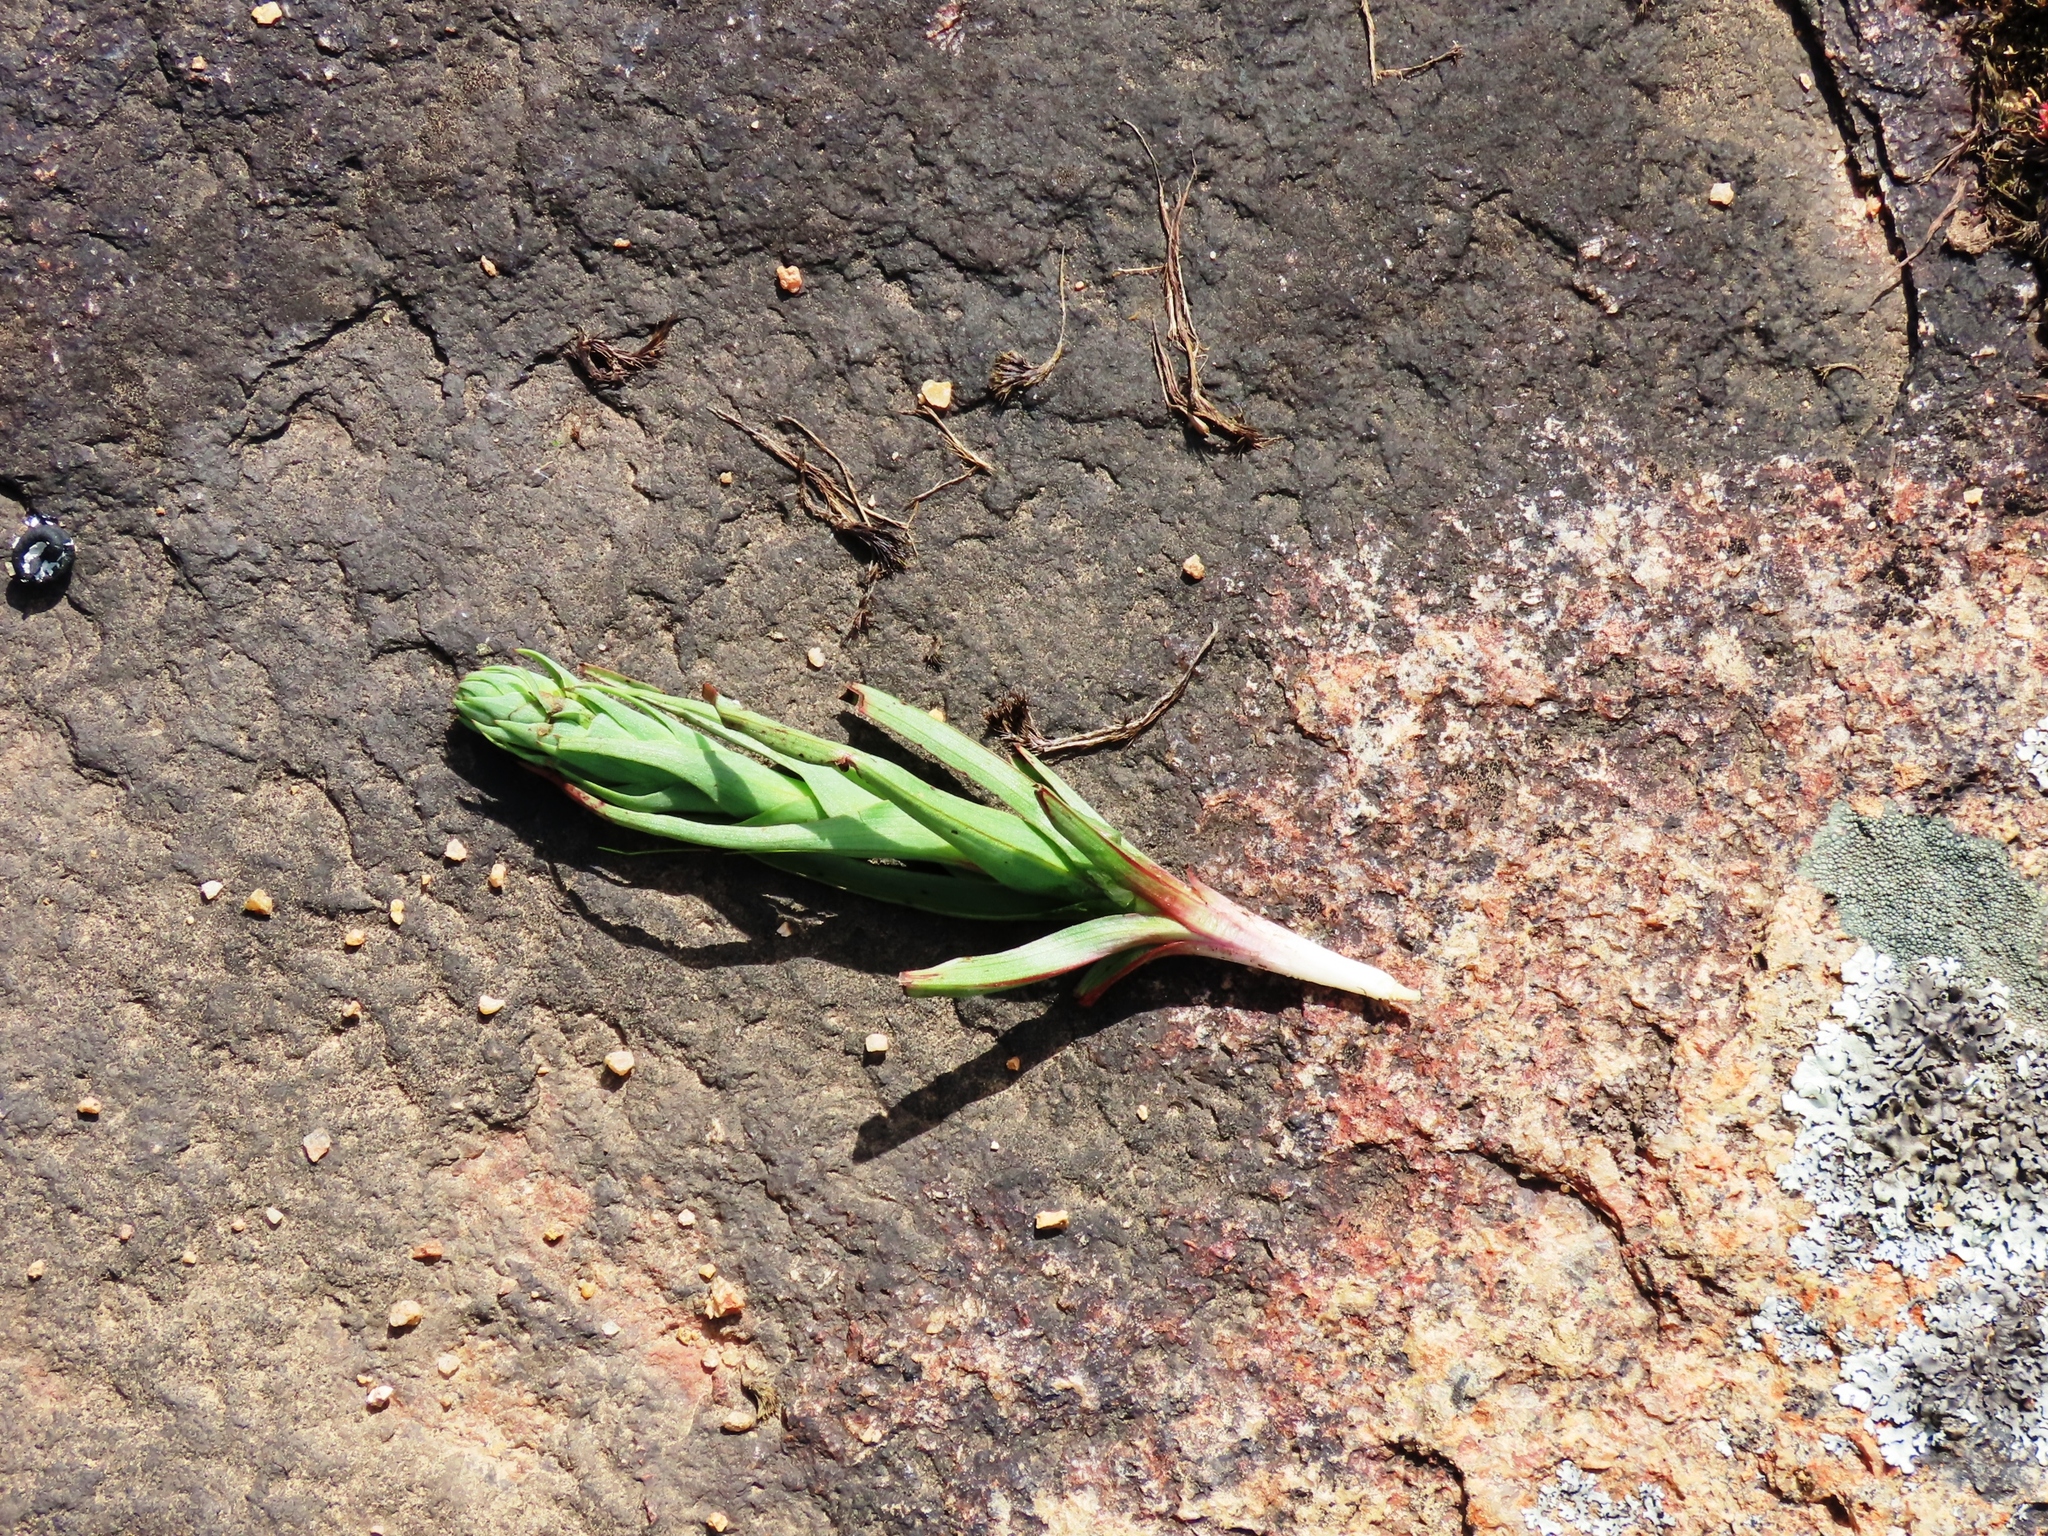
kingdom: Plantae
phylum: Tracheophyta
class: Liliopsida
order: Asparagales
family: Orchidaceae
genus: Disa
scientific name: Disa bracteata
